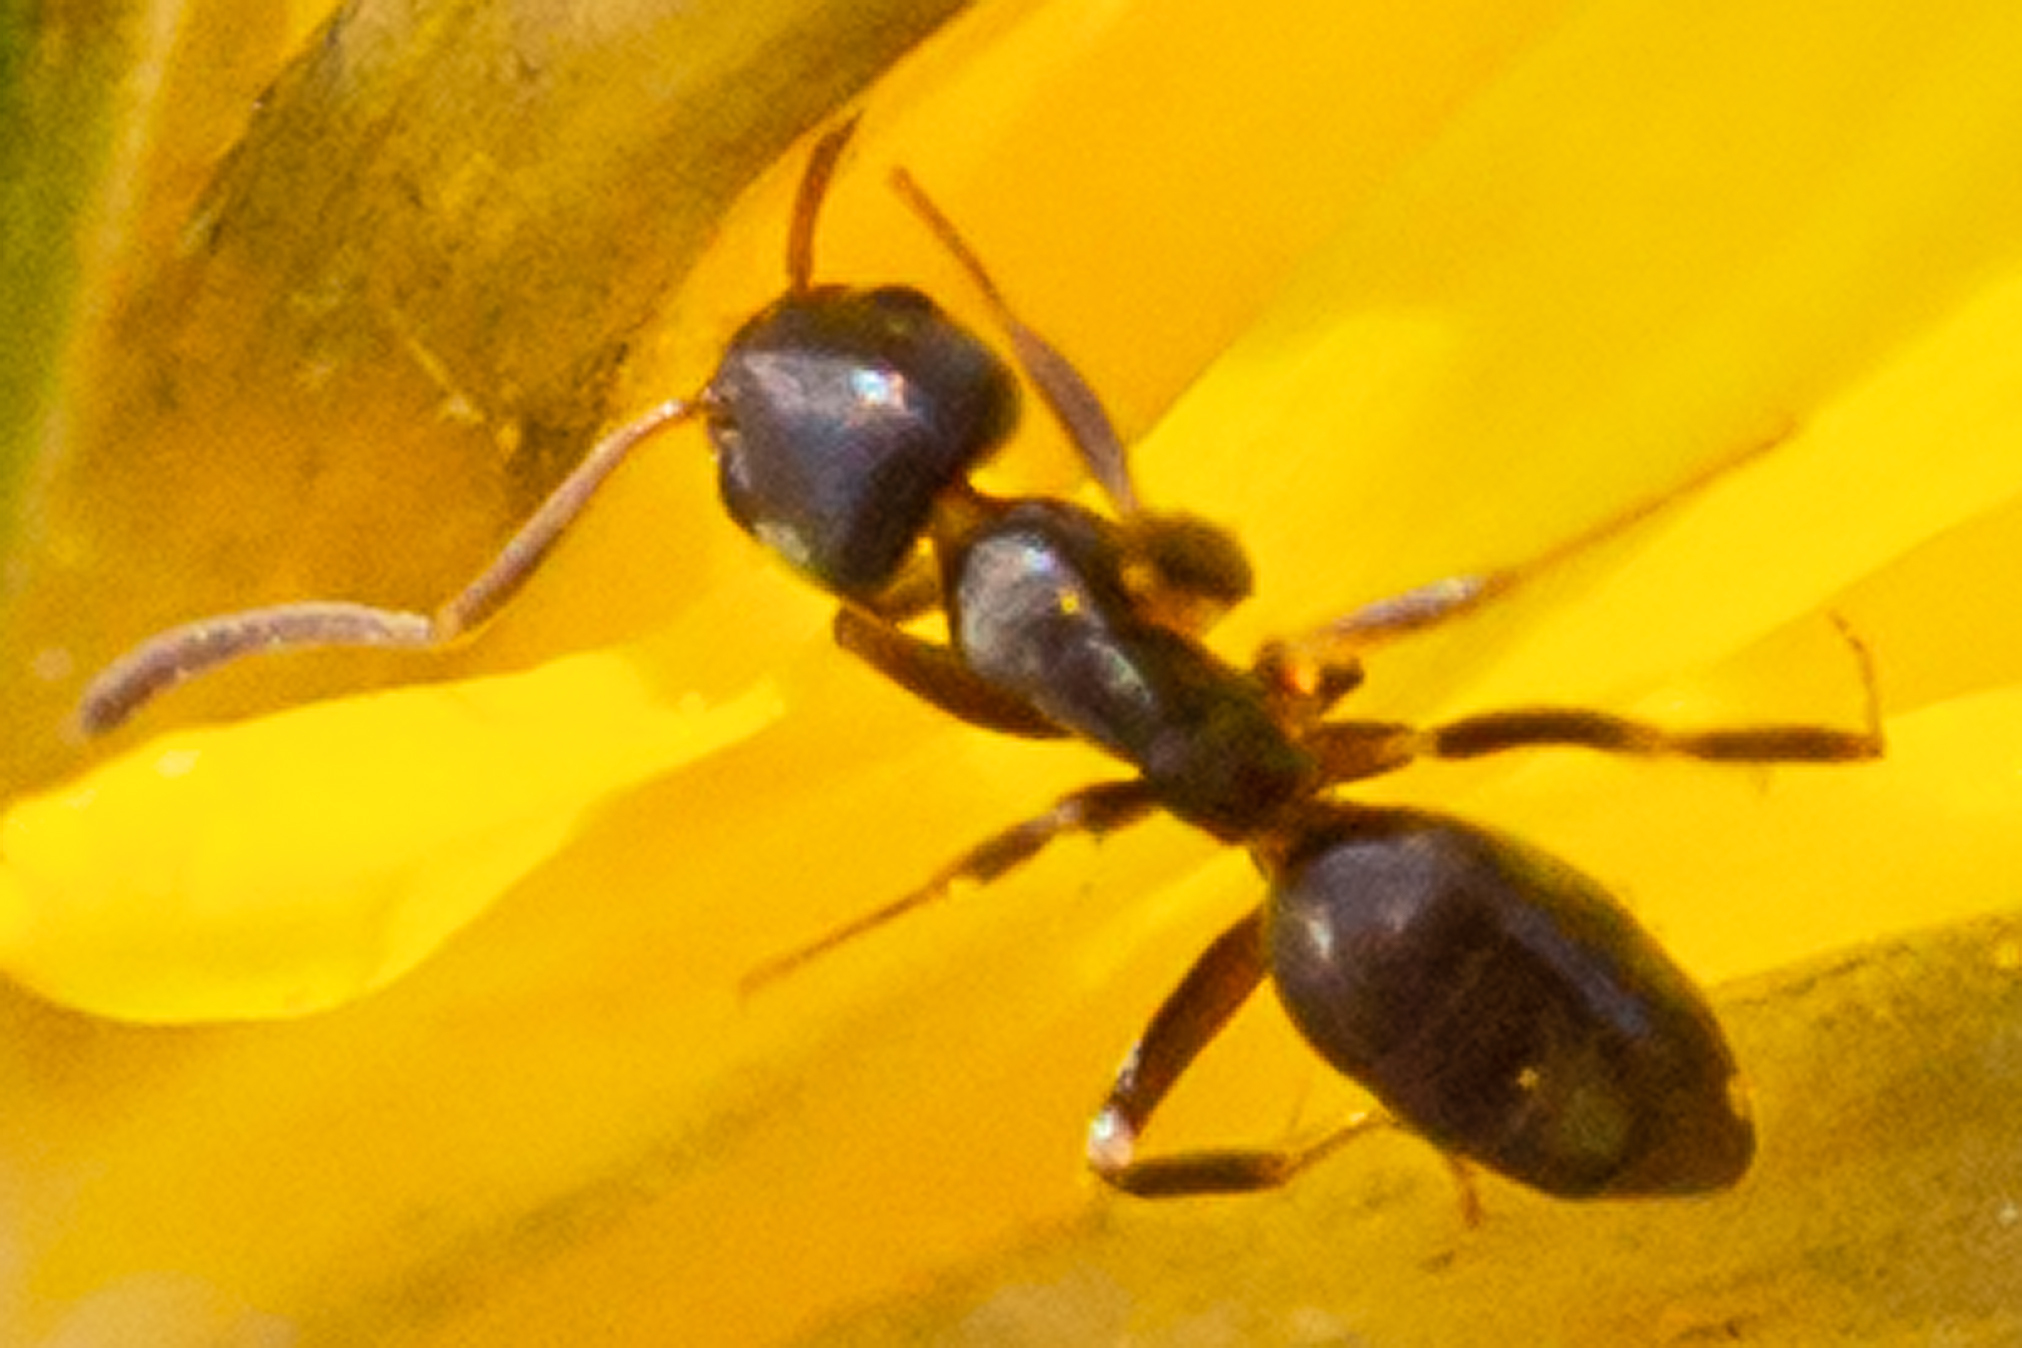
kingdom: Animalia
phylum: Arthropoda
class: Insecta
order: Hymenoptera
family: Formicidae
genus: Tapinoma
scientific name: Tapinoma sessile
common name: Odorous house ant
